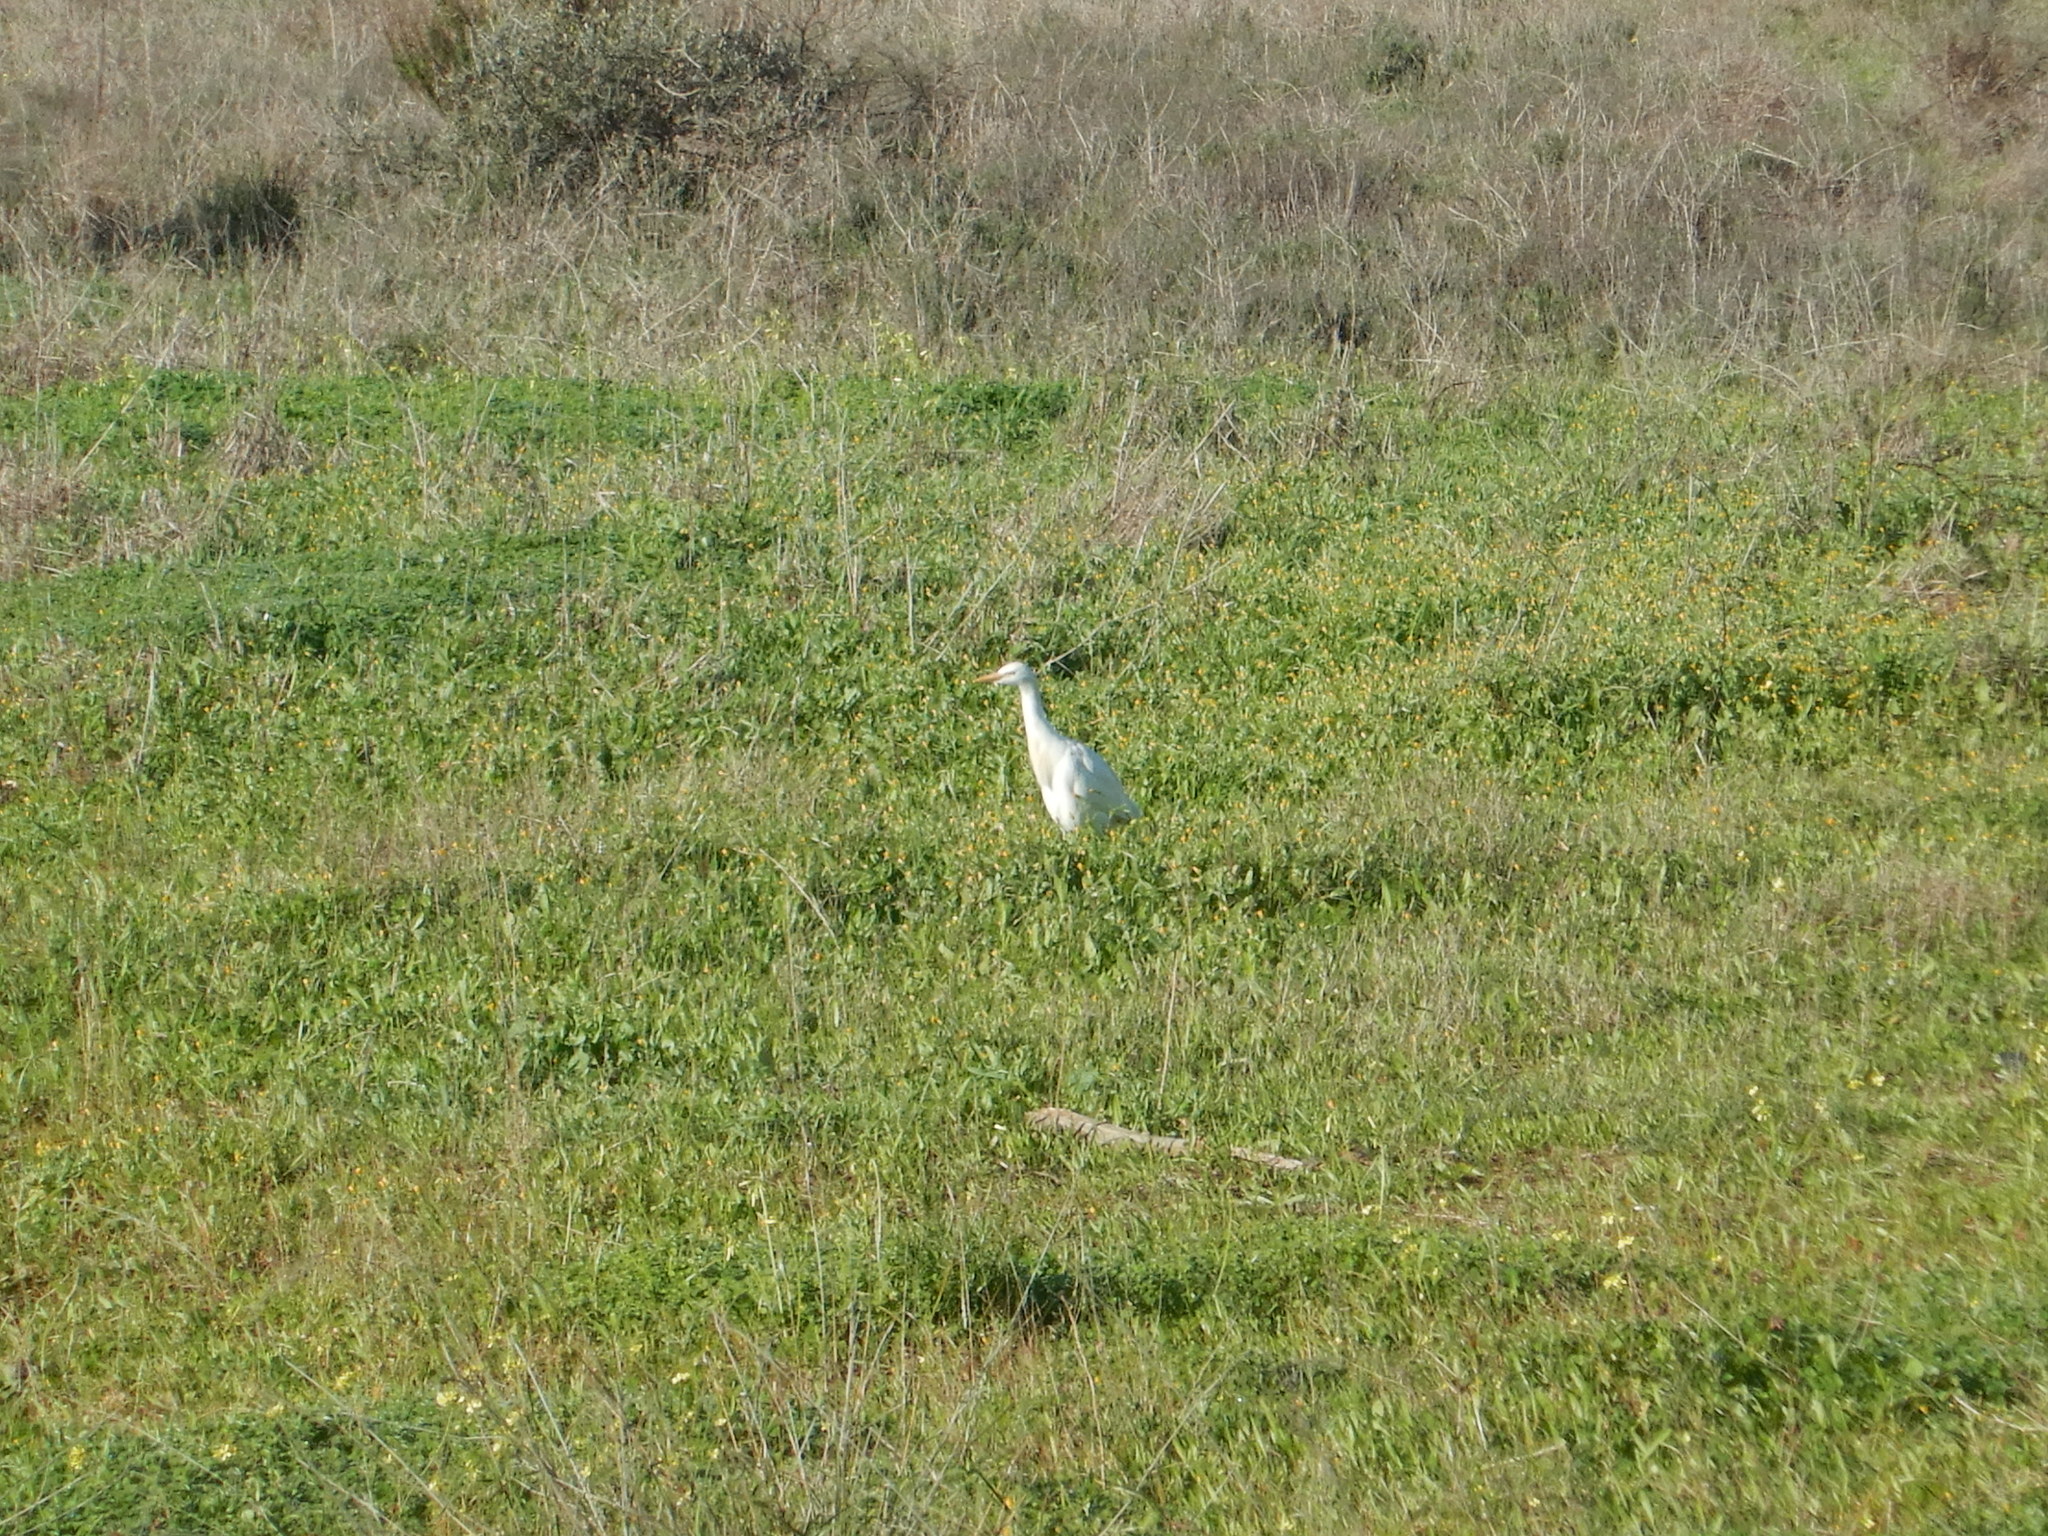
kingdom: Animalia
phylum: Chordata
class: Aves
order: Pelecaniformes
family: Ardeidae
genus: Bubulcus
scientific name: Bubulcus ibis
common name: Cattle egret
